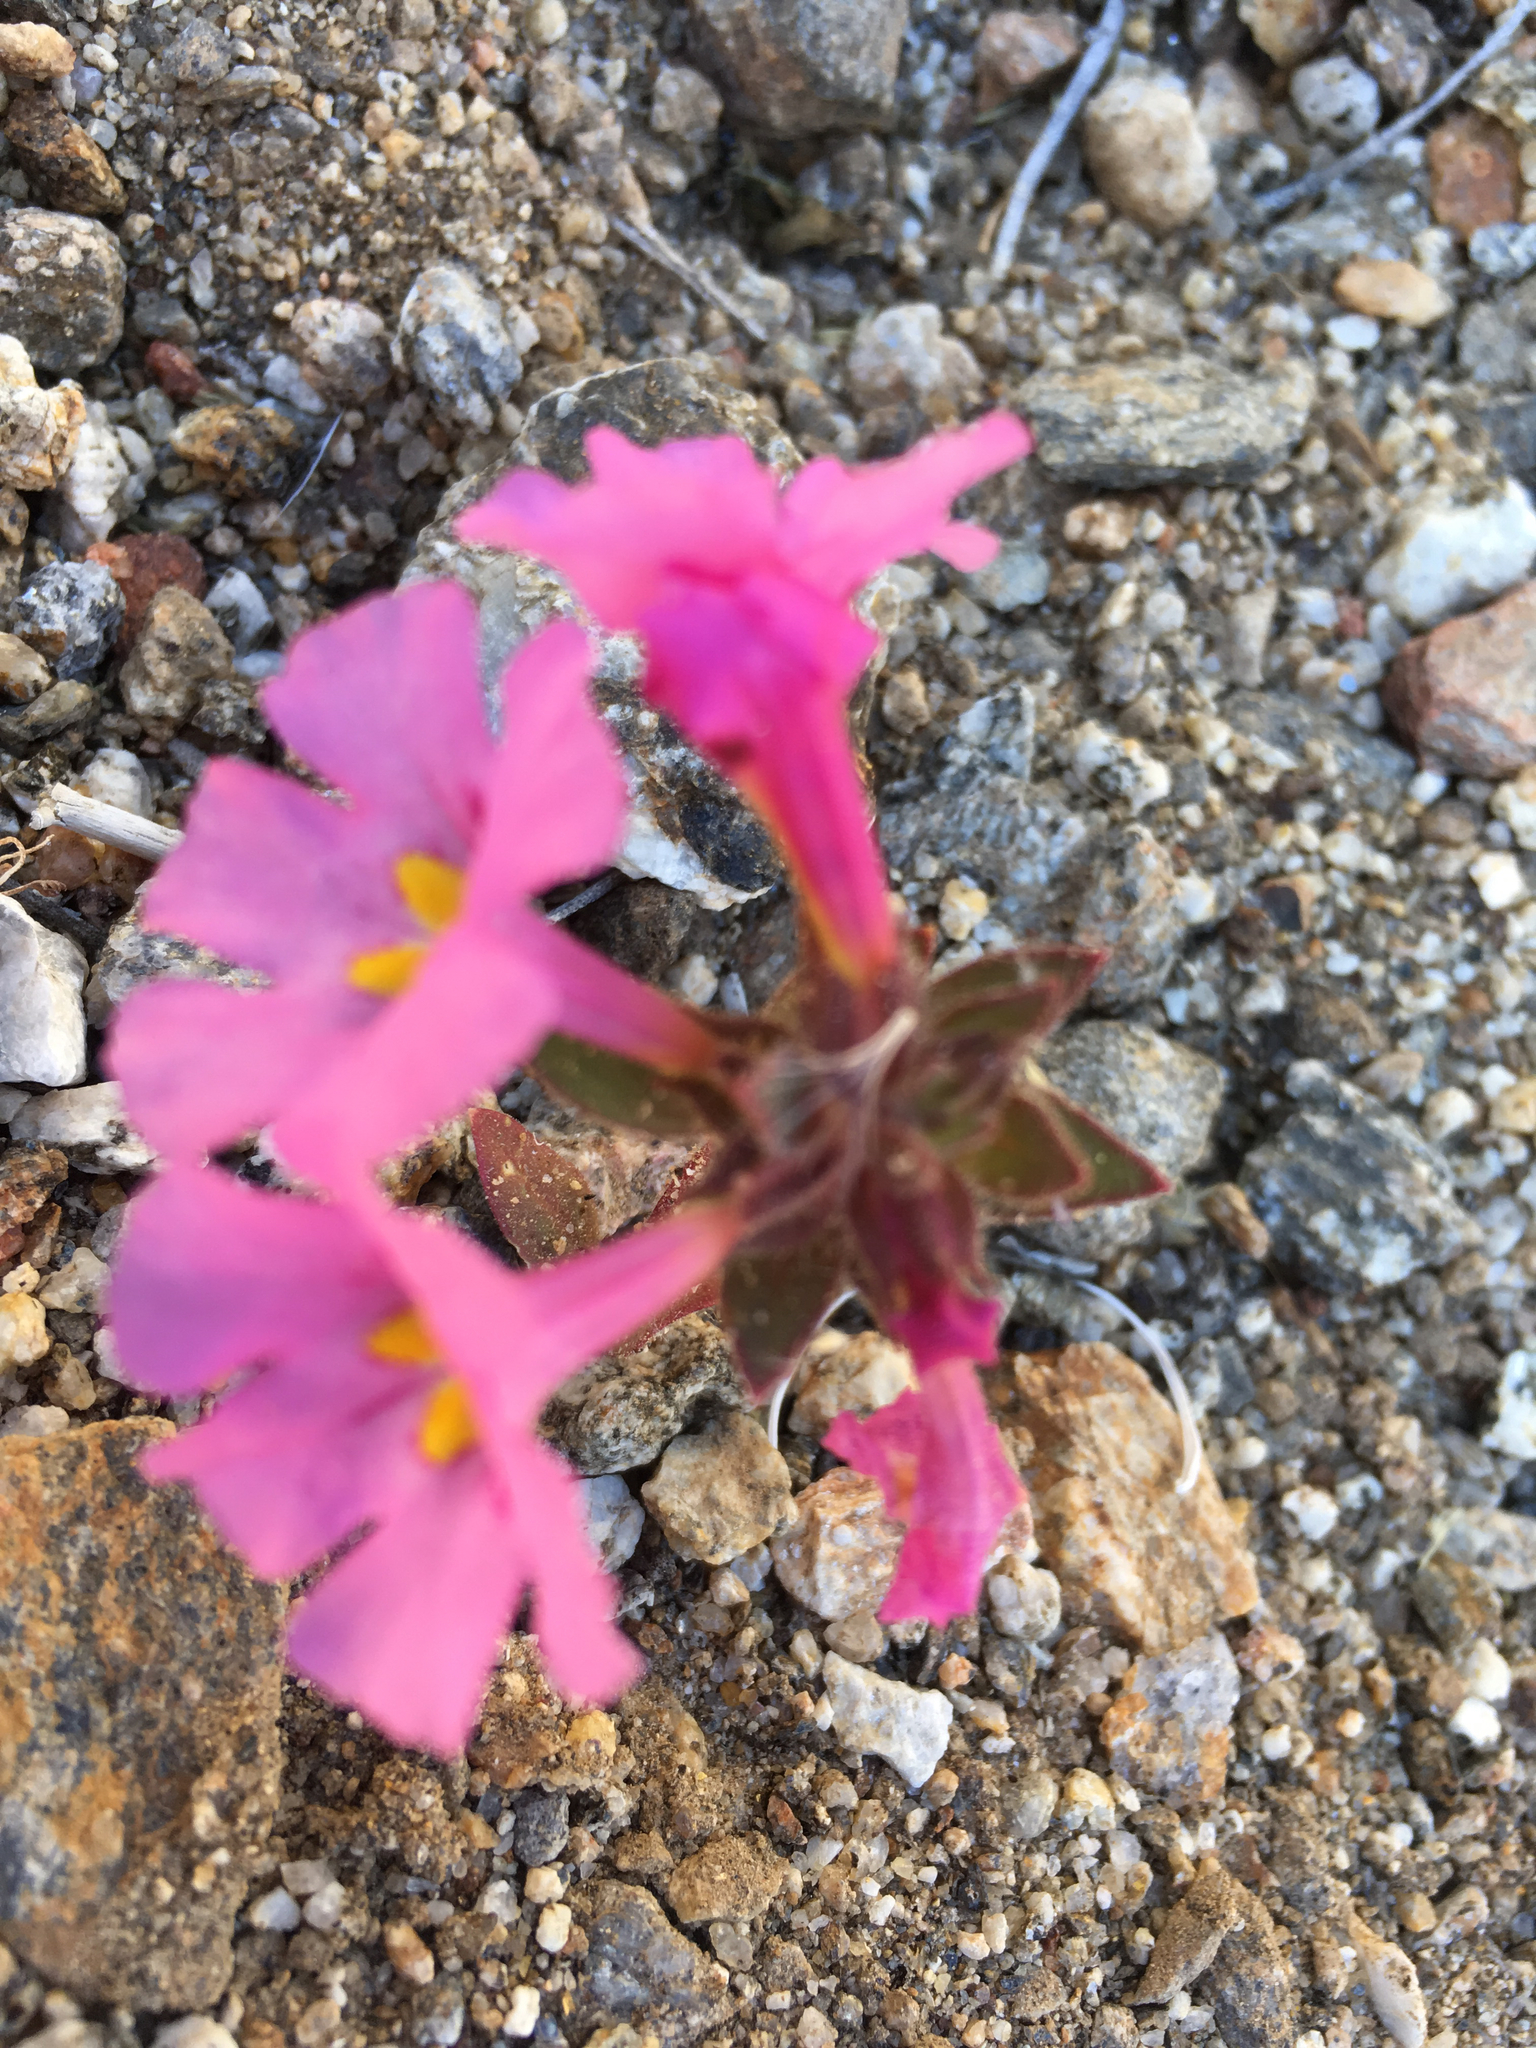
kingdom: Plantae
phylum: Tracheophyta
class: Magnoliopsida
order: Lamiales
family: Phrymaceae
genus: Diplacus
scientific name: Diplacus bigelovii
